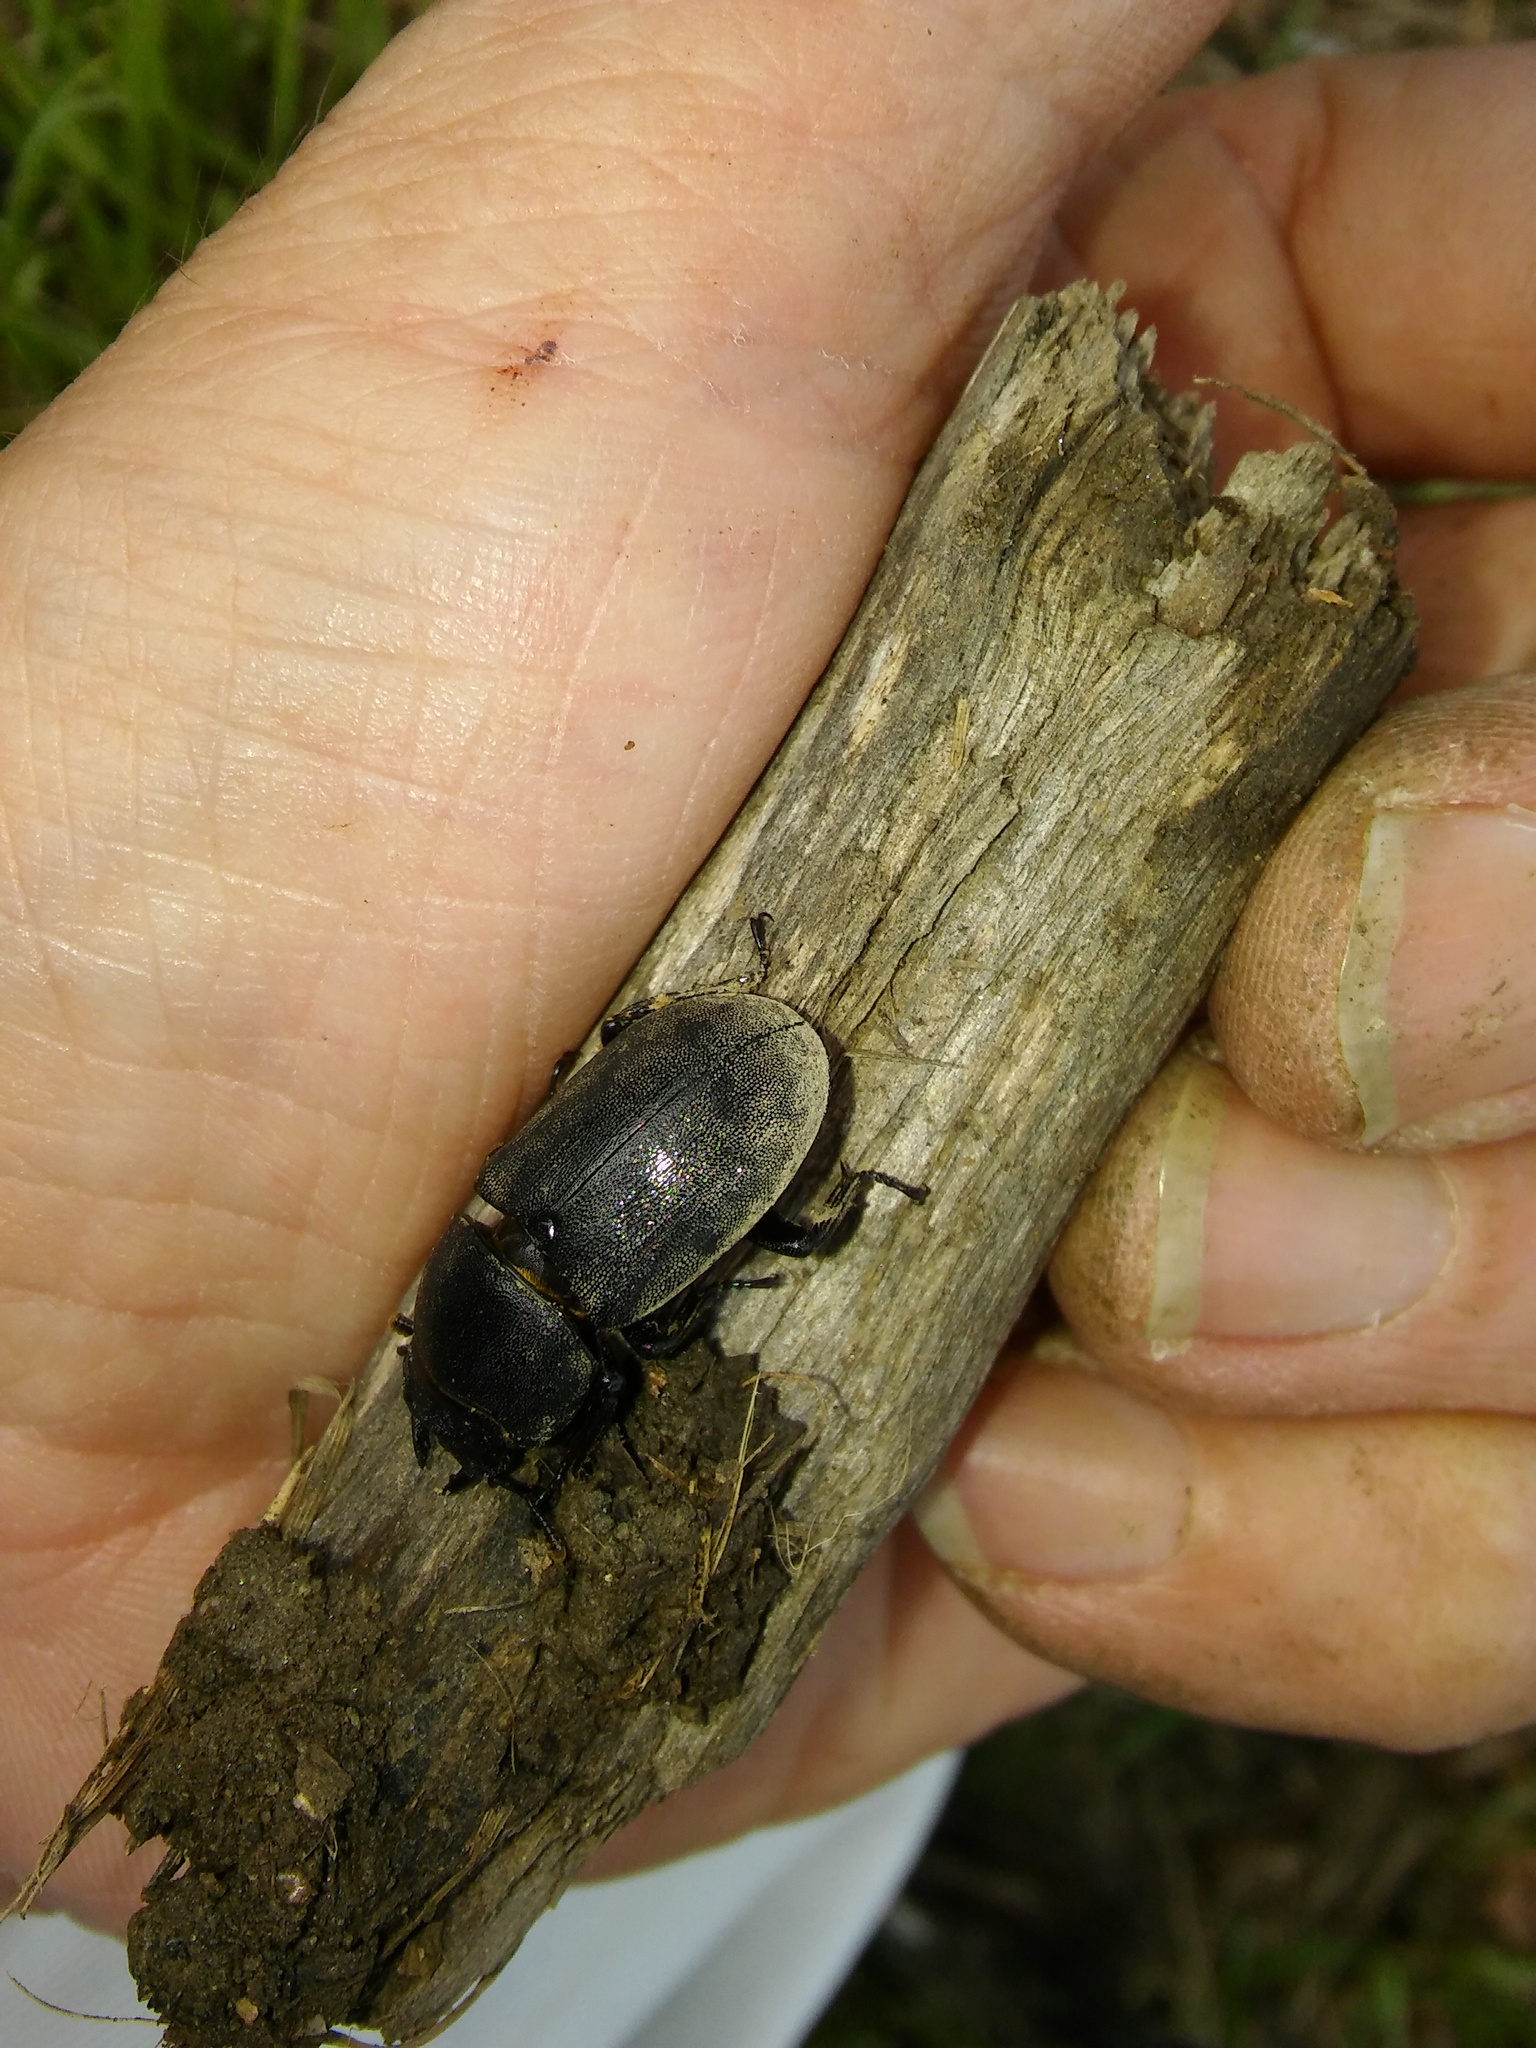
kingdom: Animalia
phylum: Arthropoda
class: Insecta
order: Coleoptera
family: Lucanidae
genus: Dorcus
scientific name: Dorcus parallelipipedus
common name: Lesser stag beetle
